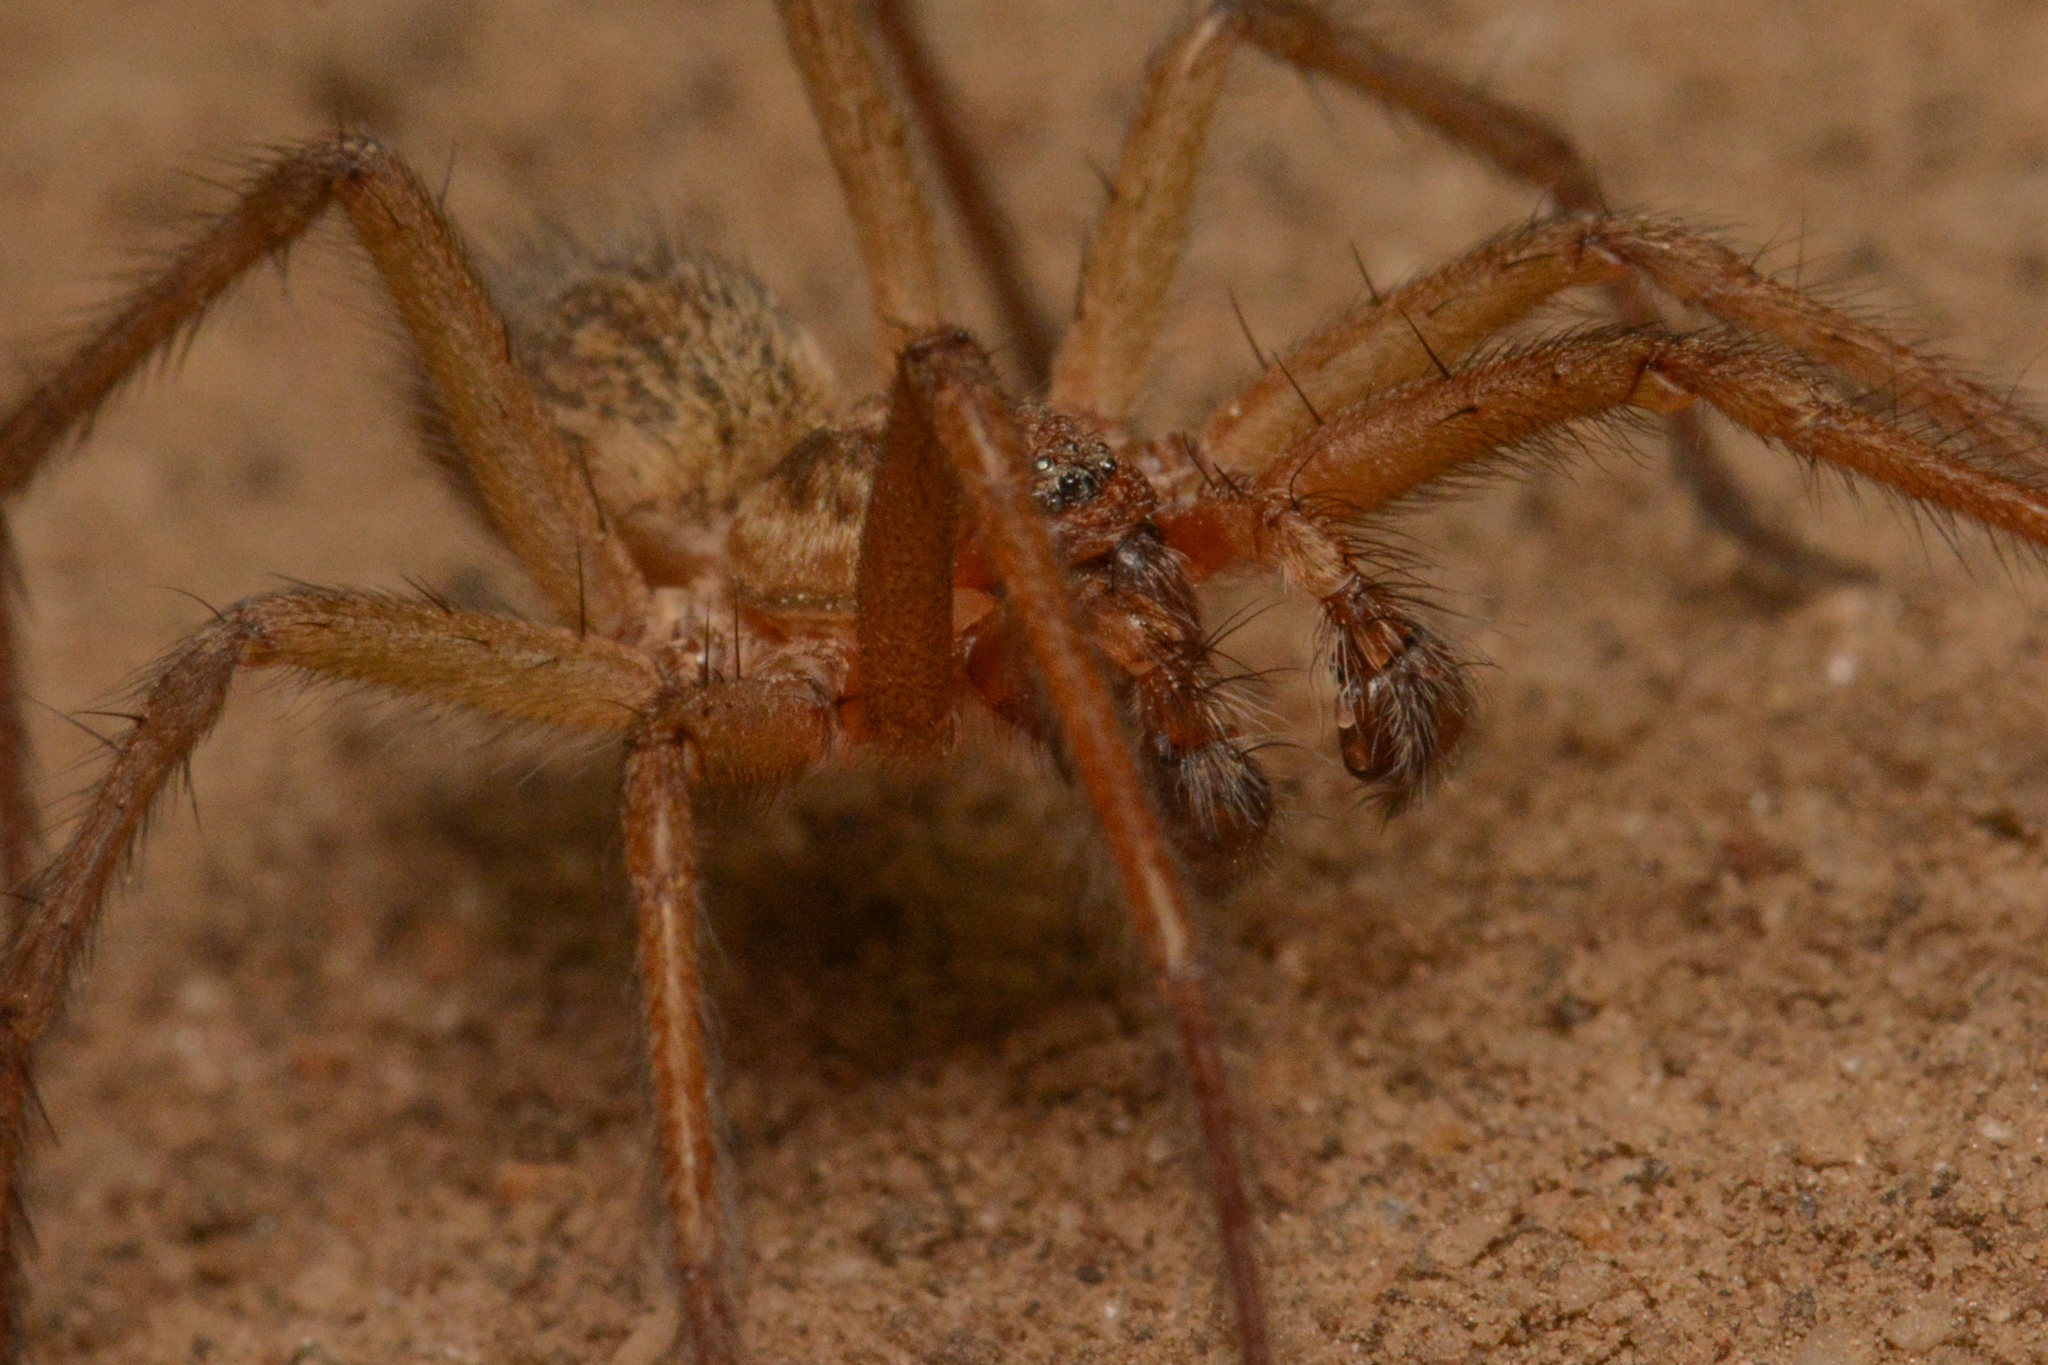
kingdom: Animalia
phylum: Arthropoda
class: Arachnida
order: Araneae
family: Agelenidae
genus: Eratigena
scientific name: Eratigena agrestis
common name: Hobo spider
